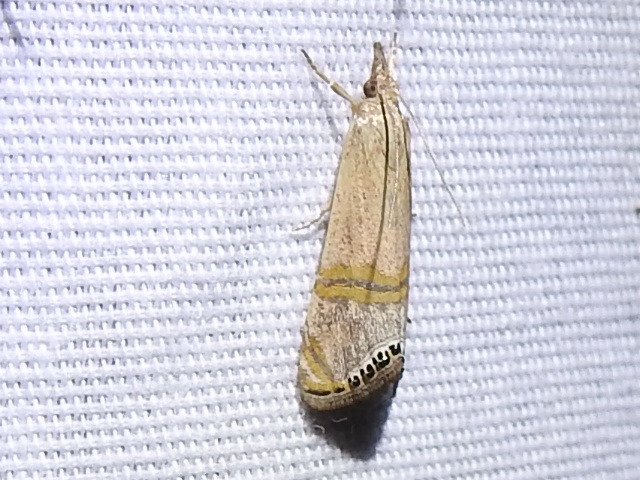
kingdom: Animalia
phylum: Arthropoda
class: Insecta
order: Lepidoptera
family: Crambidae
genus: Euchromius
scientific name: Euchromius ocellea
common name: Necklace veneer moth
